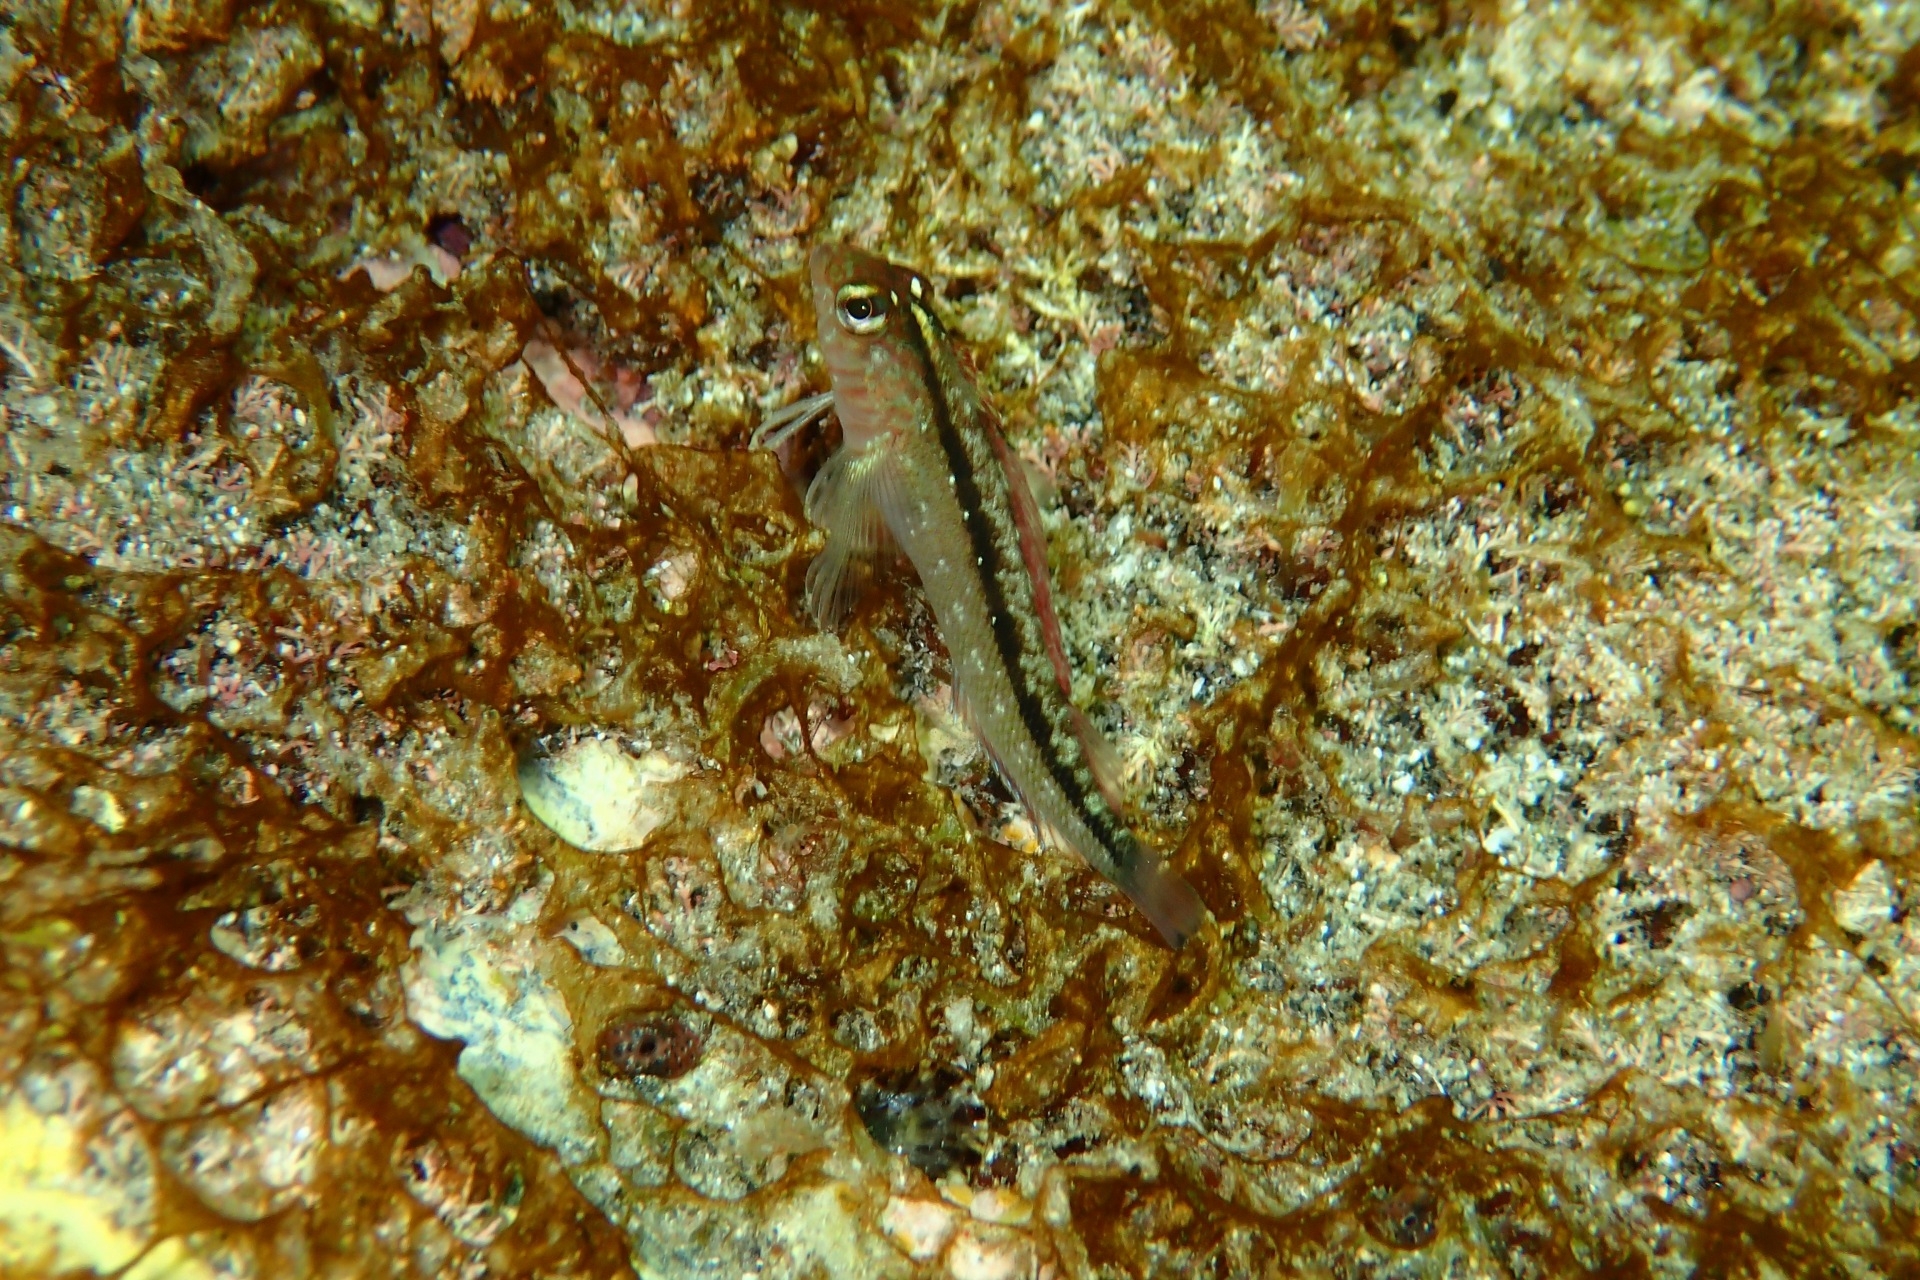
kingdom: Animalia
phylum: Chordata
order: Perciformes
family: Tripterygiidae
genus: Forsterygion
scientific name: Forsterygion lapillum
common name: Common triplefin
